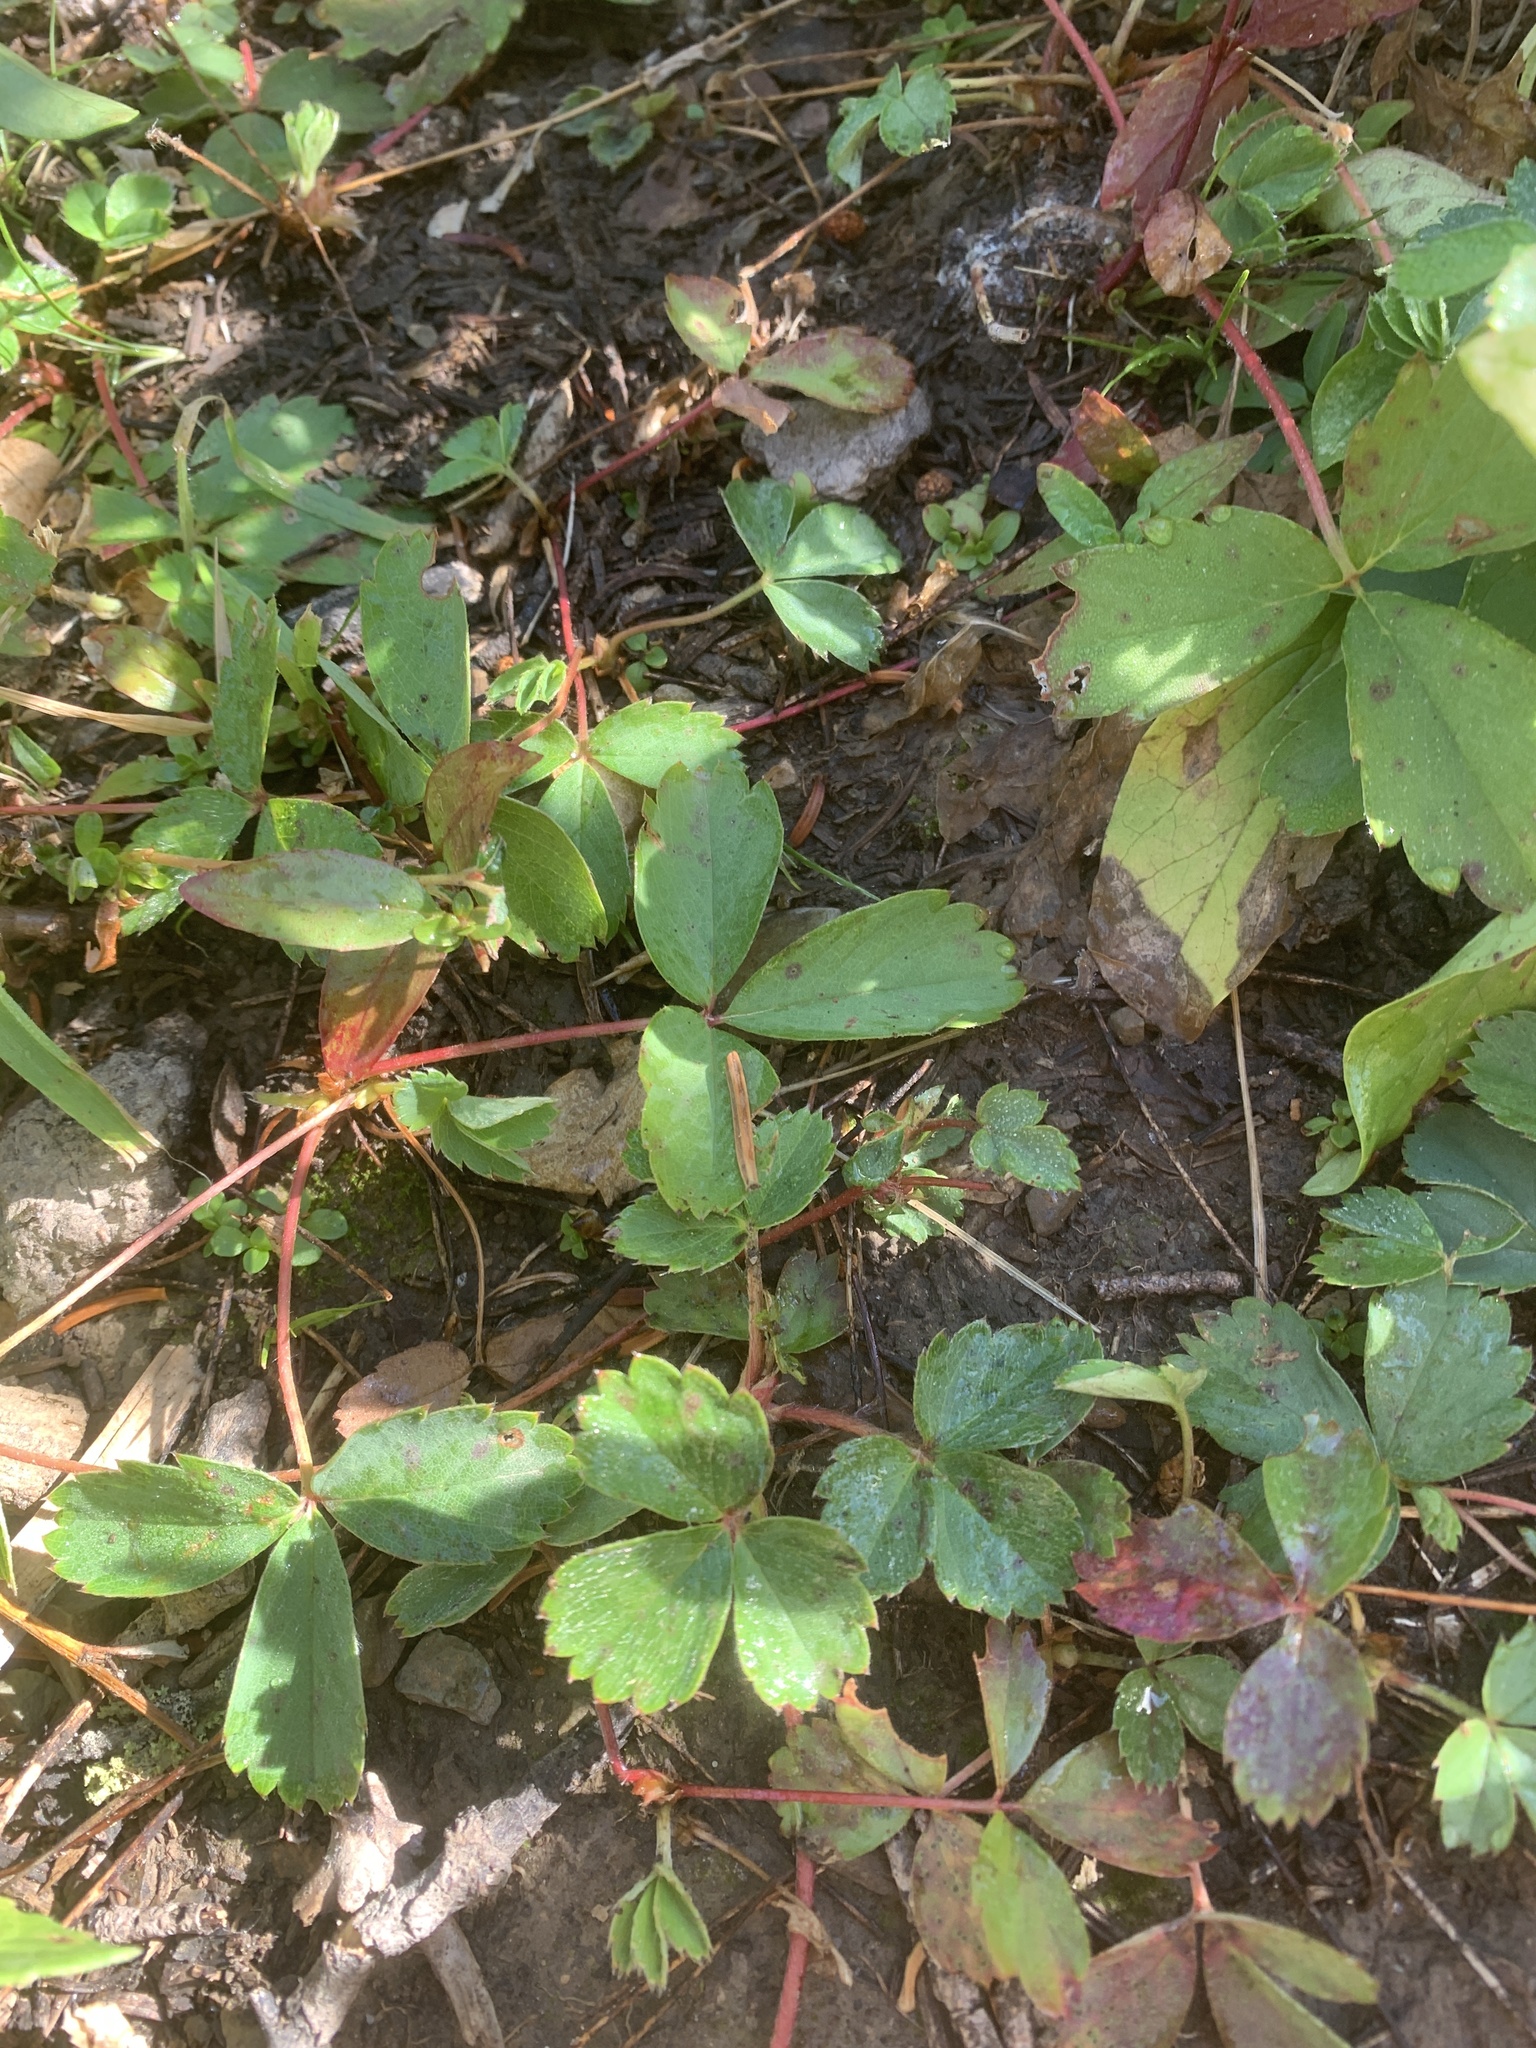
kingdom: Plantae
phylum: Tracheophyta
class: Magnoliopsida
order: Rosales
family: Rosaceae
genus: Fragaria
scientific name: Fragaria virginiana
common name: Thickleaved wild strawberry
